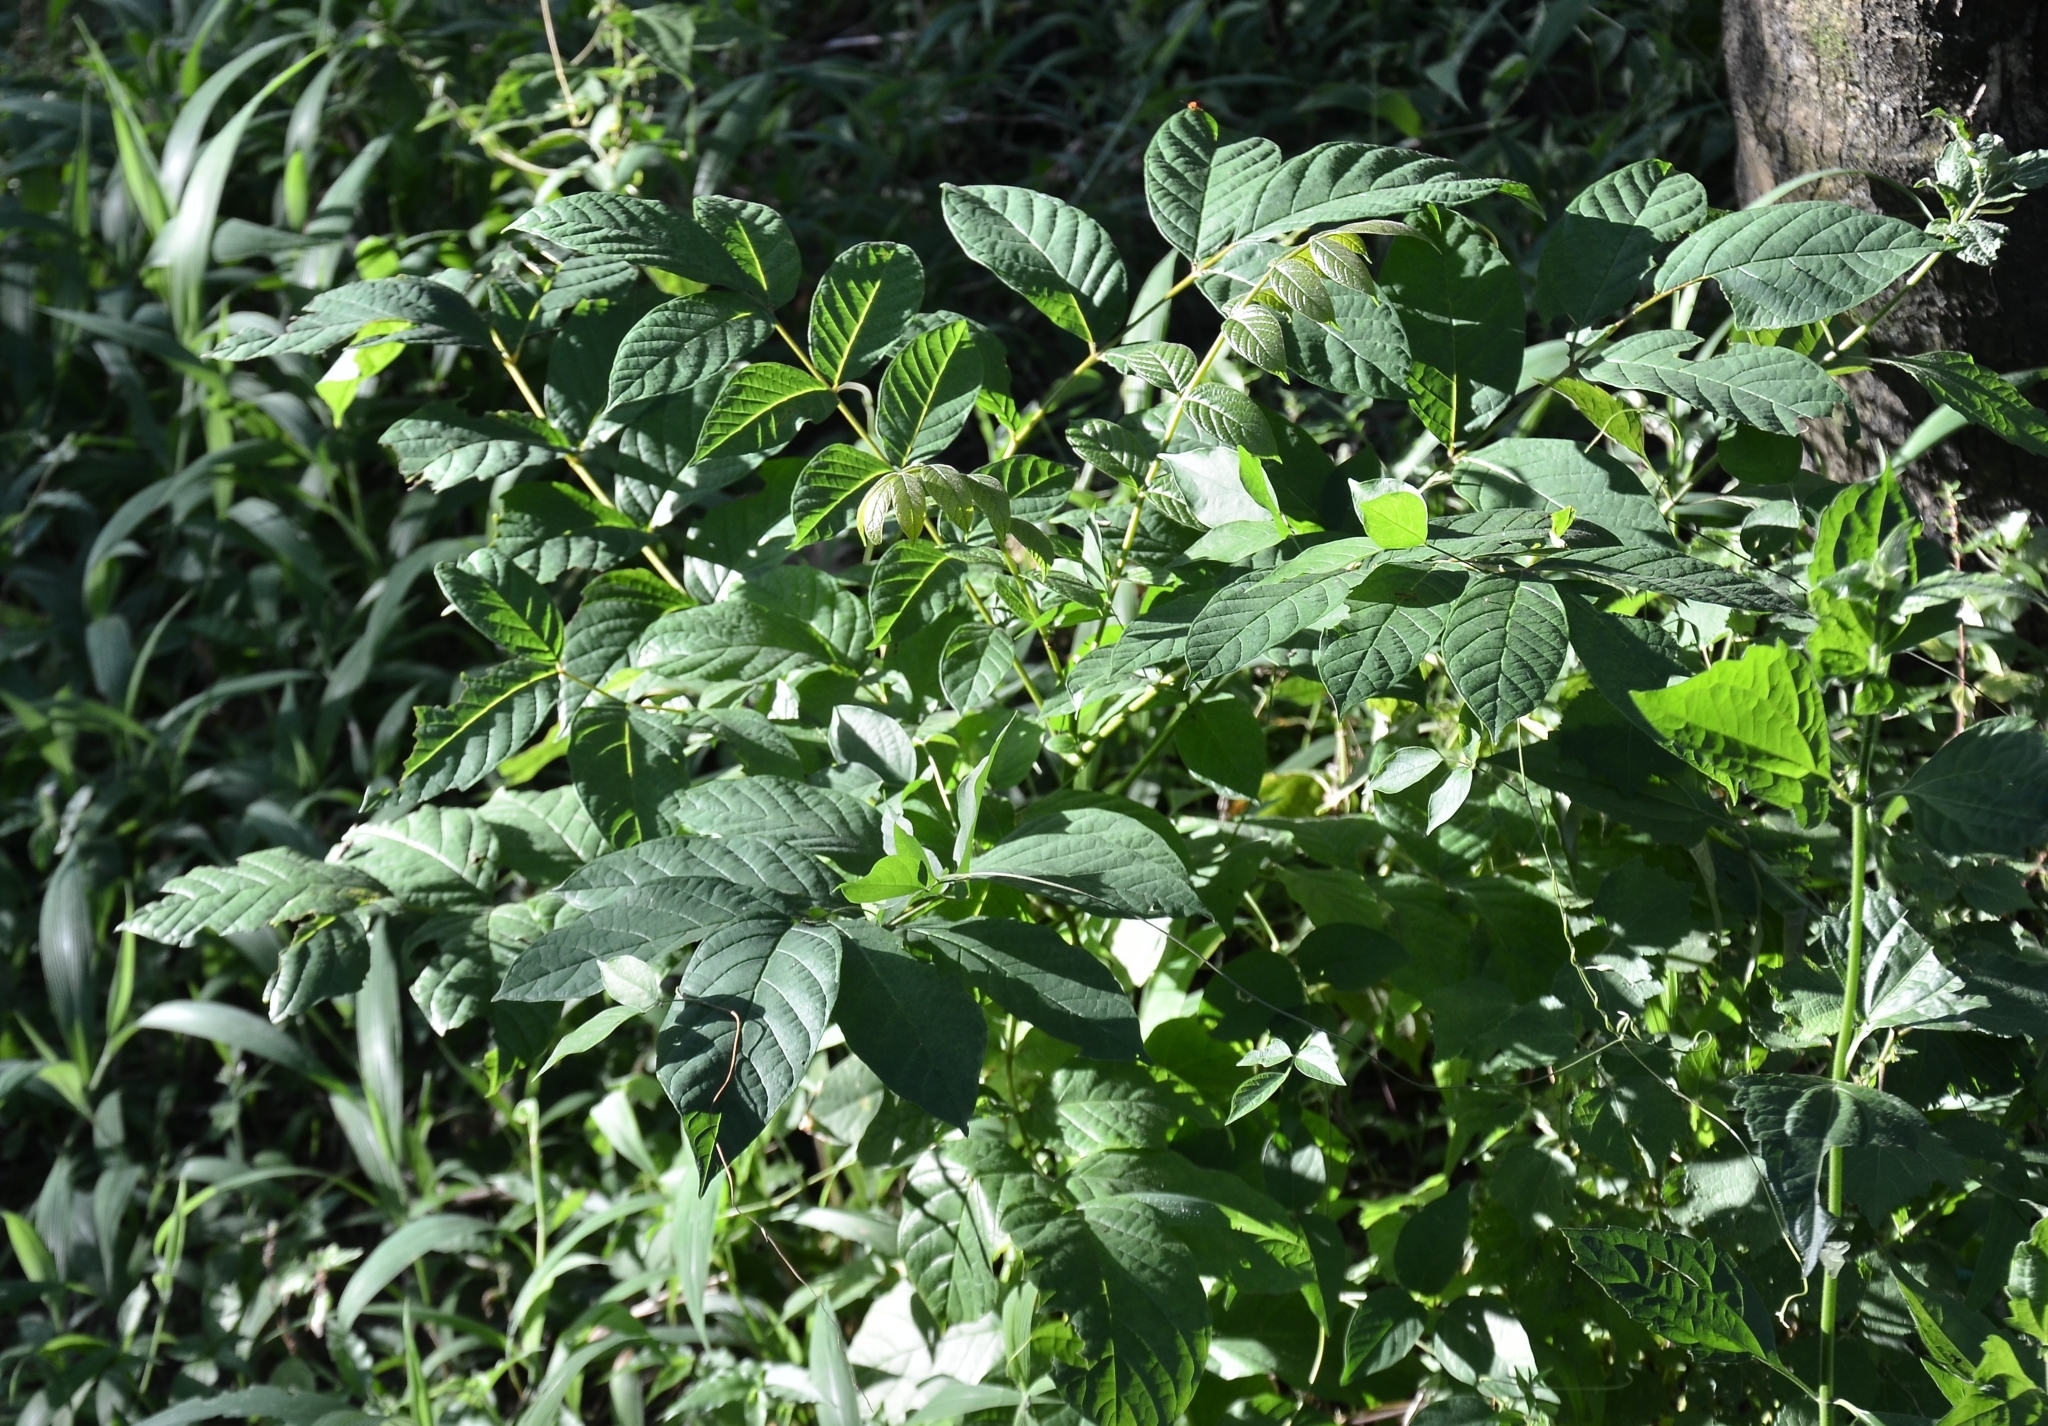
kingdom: Plantae
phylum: Tracheophyta
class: Magnoliopsida
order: Lamiales
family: Bignoniaceae
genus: Spathodea
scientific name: Spathodea campanulata
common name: African tuliptree
